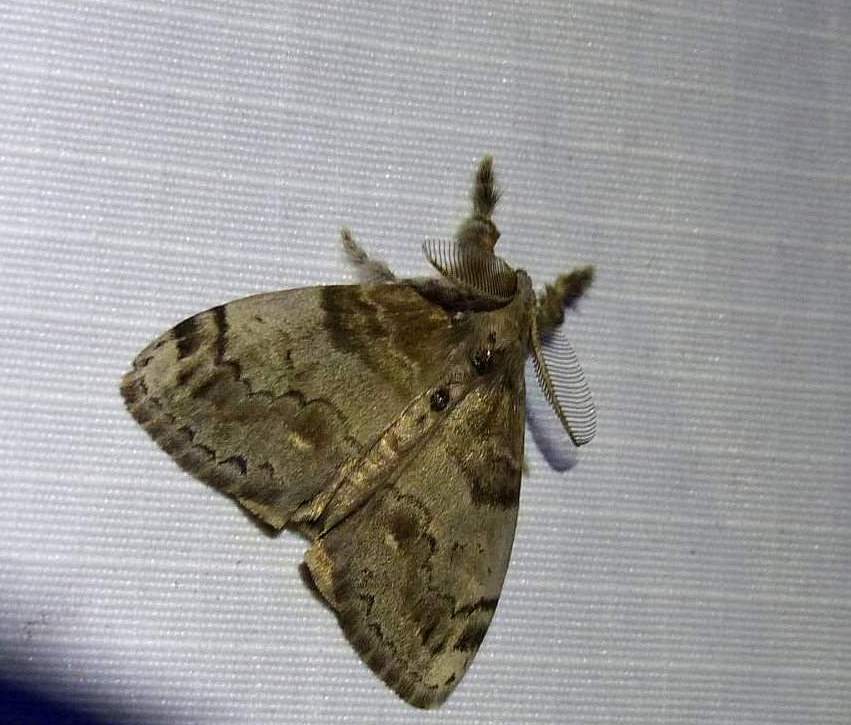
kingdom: Animalia
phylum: Arthropoda
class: Insecta
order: Lepidoptera
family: Erebidae
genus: Orgyia
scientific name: Orgyia leucostigma
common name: White-marked tussock moth
